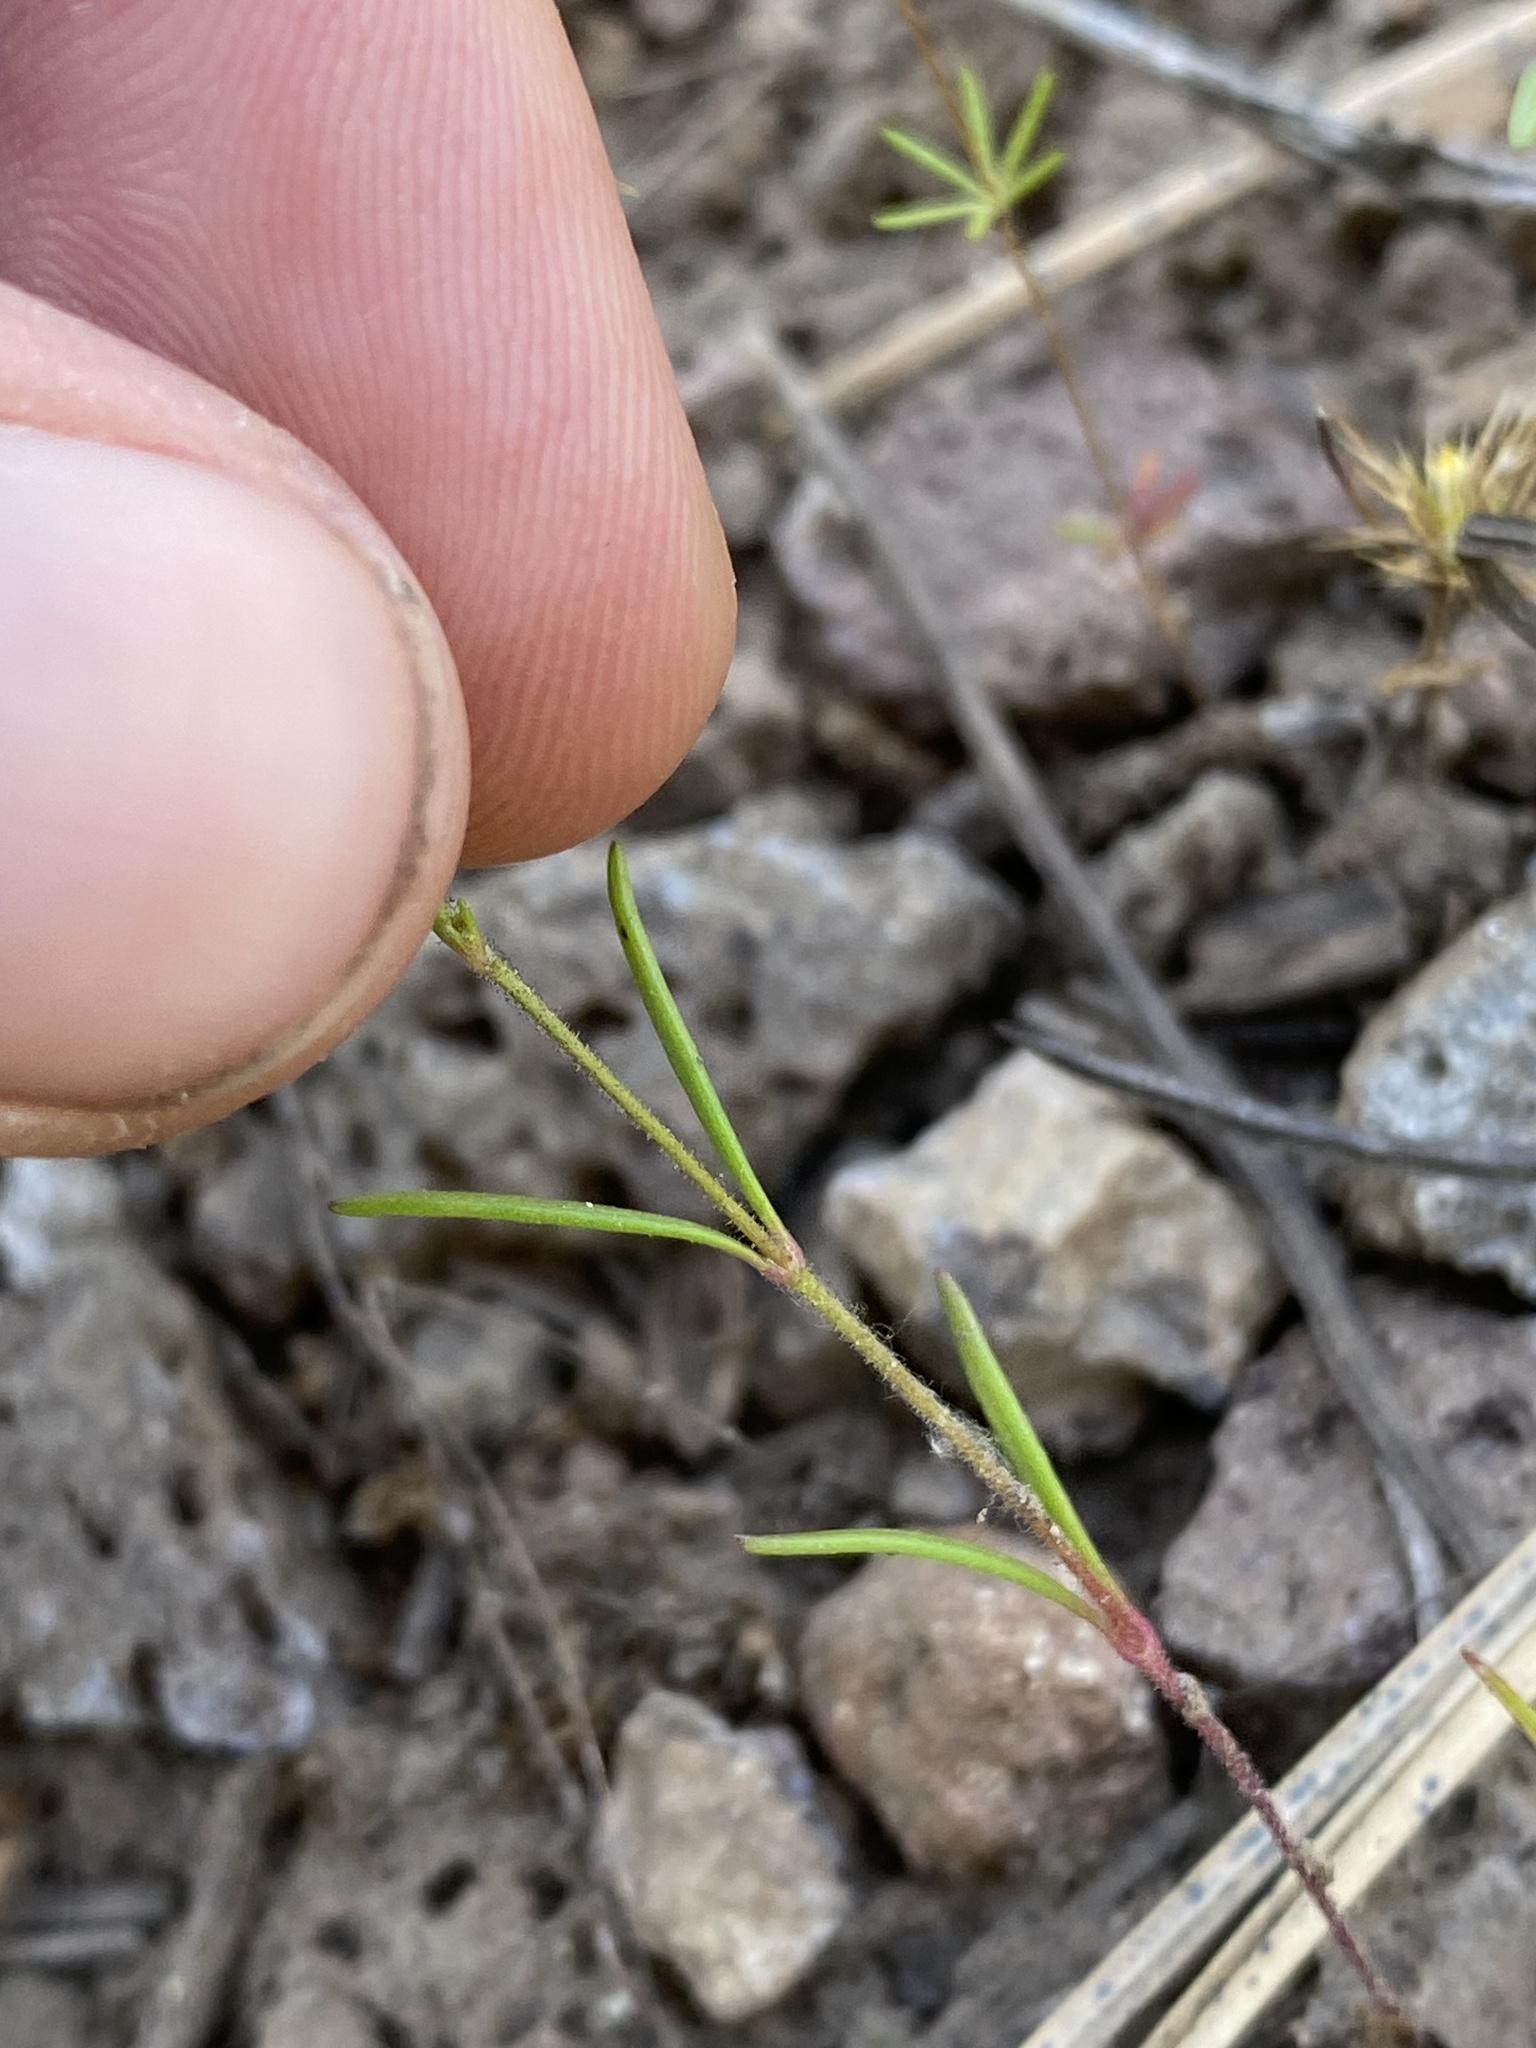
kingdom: Plantae
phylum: Tracheophyta
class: Magnoliopsida
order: Ericales
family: Polemoniaceae
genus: Navarretia
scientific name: Navarretia sinistra
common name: Alva day's pincushionplant
